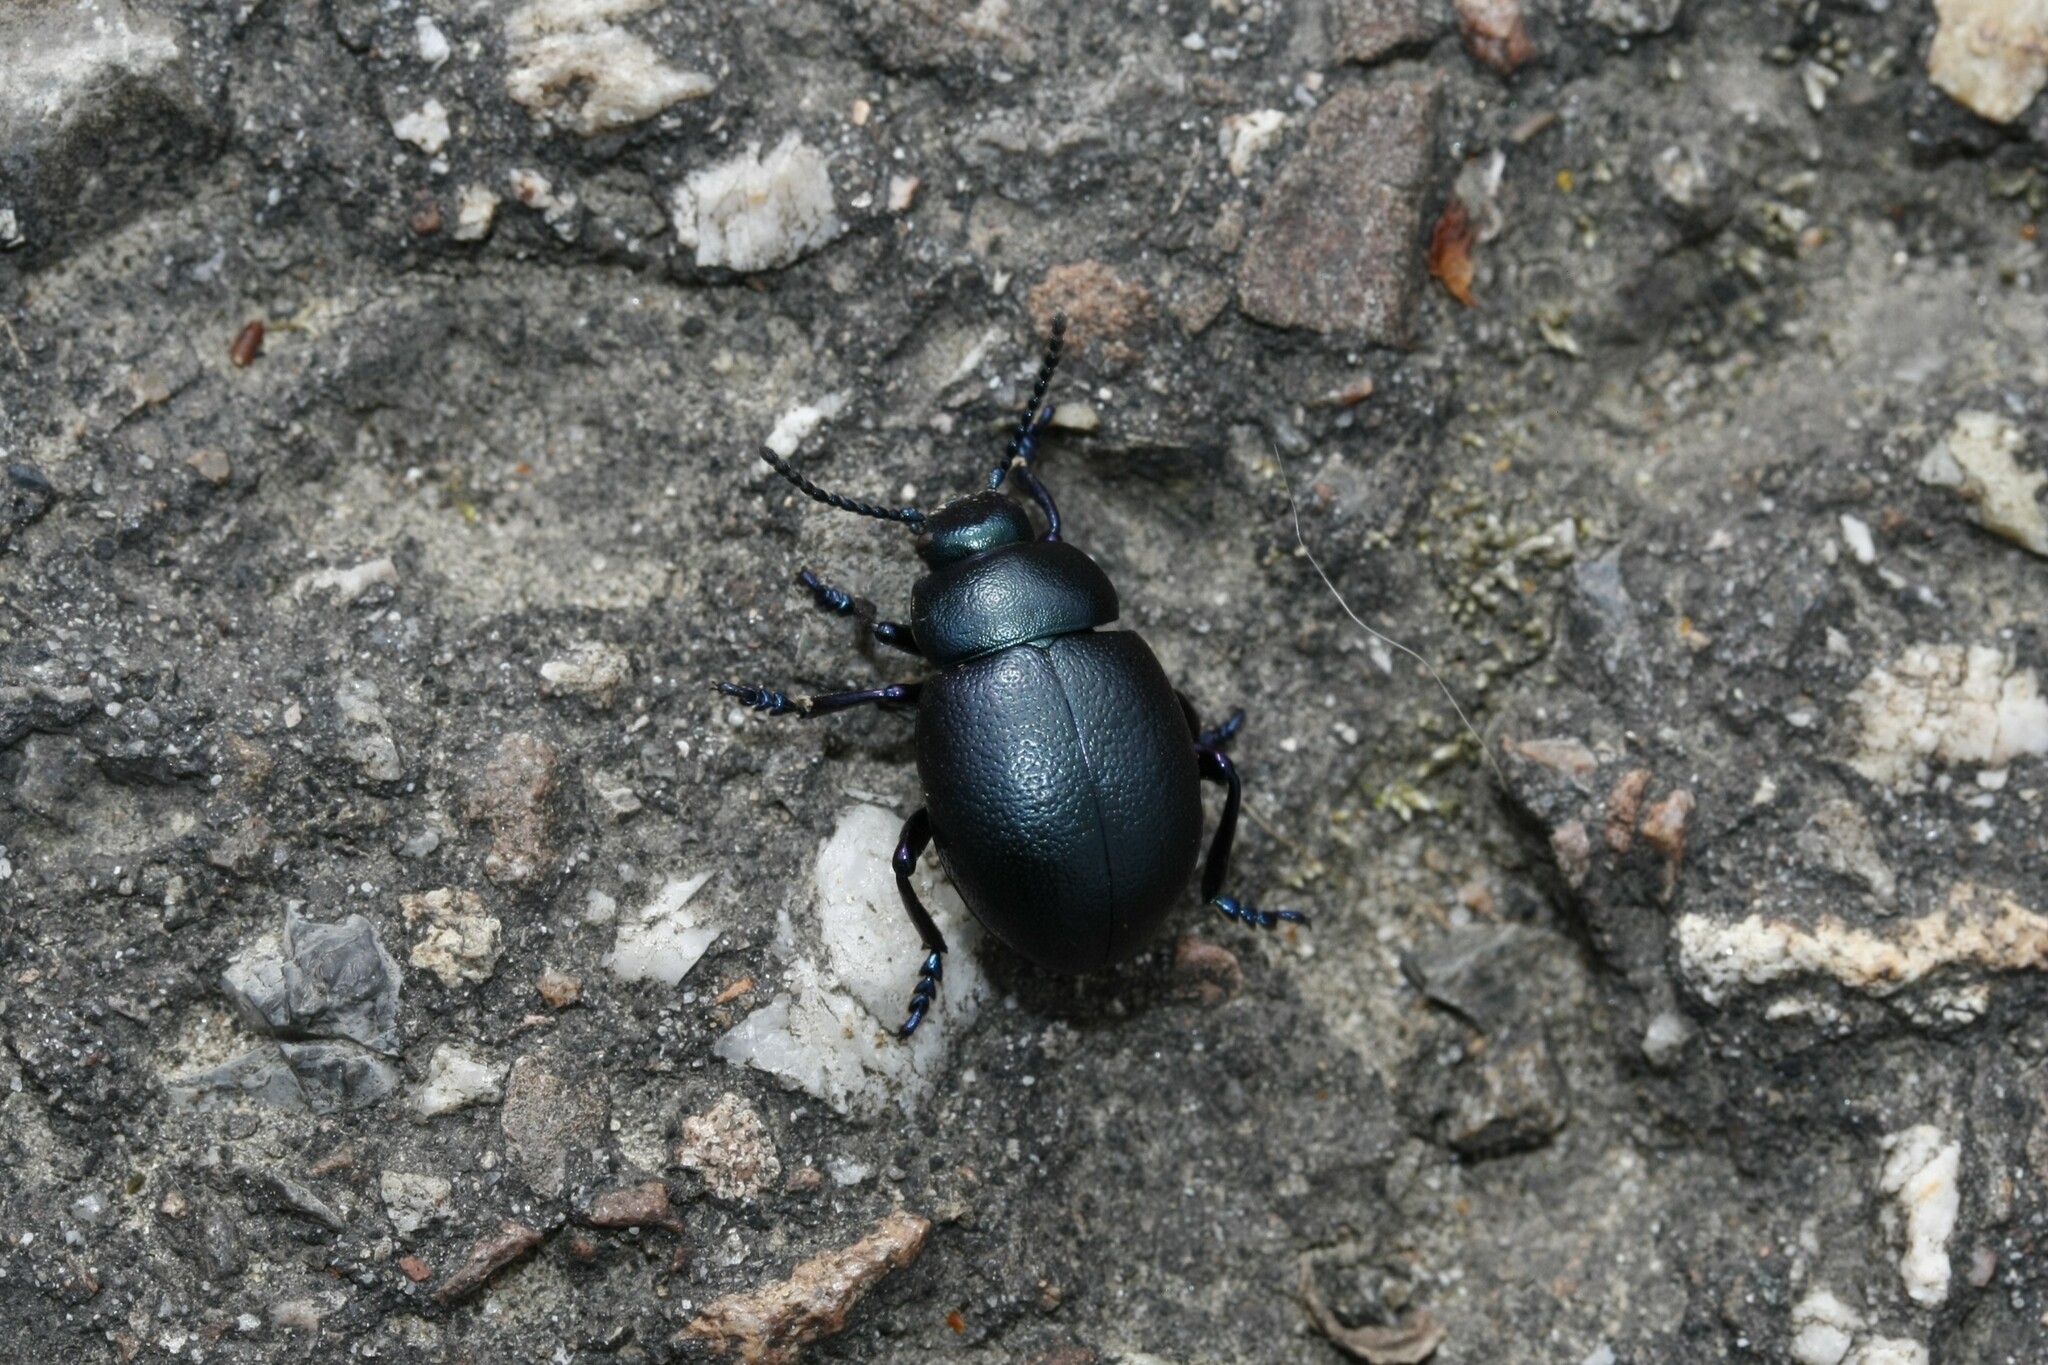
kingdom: Animalia
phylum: Arthropoda
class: Insecta
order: Coleoptera
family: Chrysomelidae
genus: Timarcha
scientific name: Timarcha goettingensis
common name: Small bloody-nosed beetle
